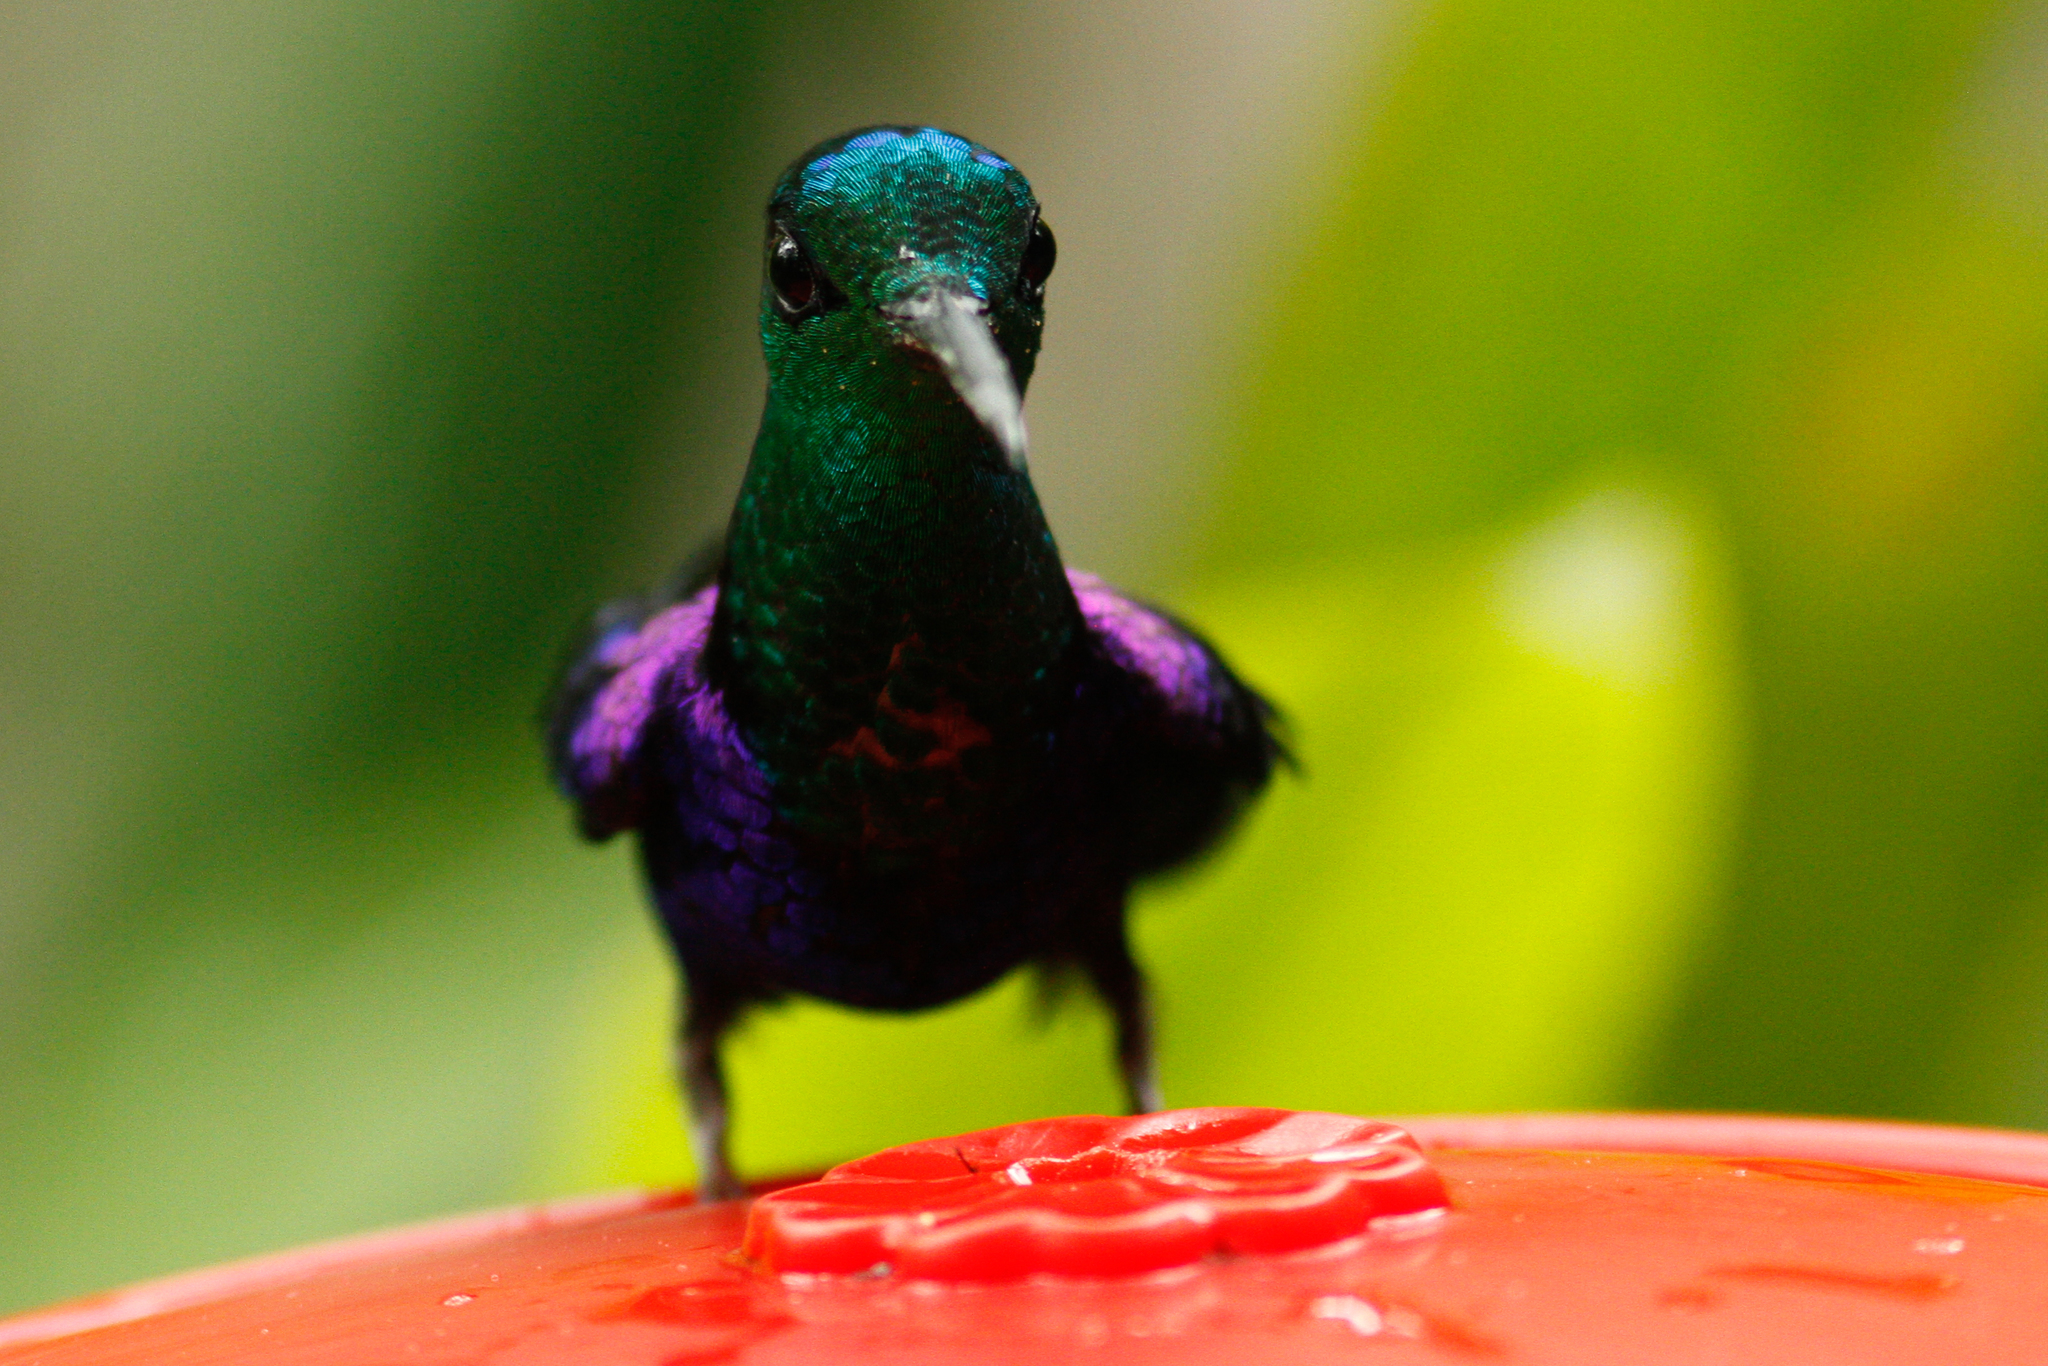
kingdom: Animalia
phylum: Chordata
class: Aves
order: Apodiformes
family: Trochilidae
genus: Thalurania
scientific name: Thalurania colombica
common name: Crowned woodnymph
